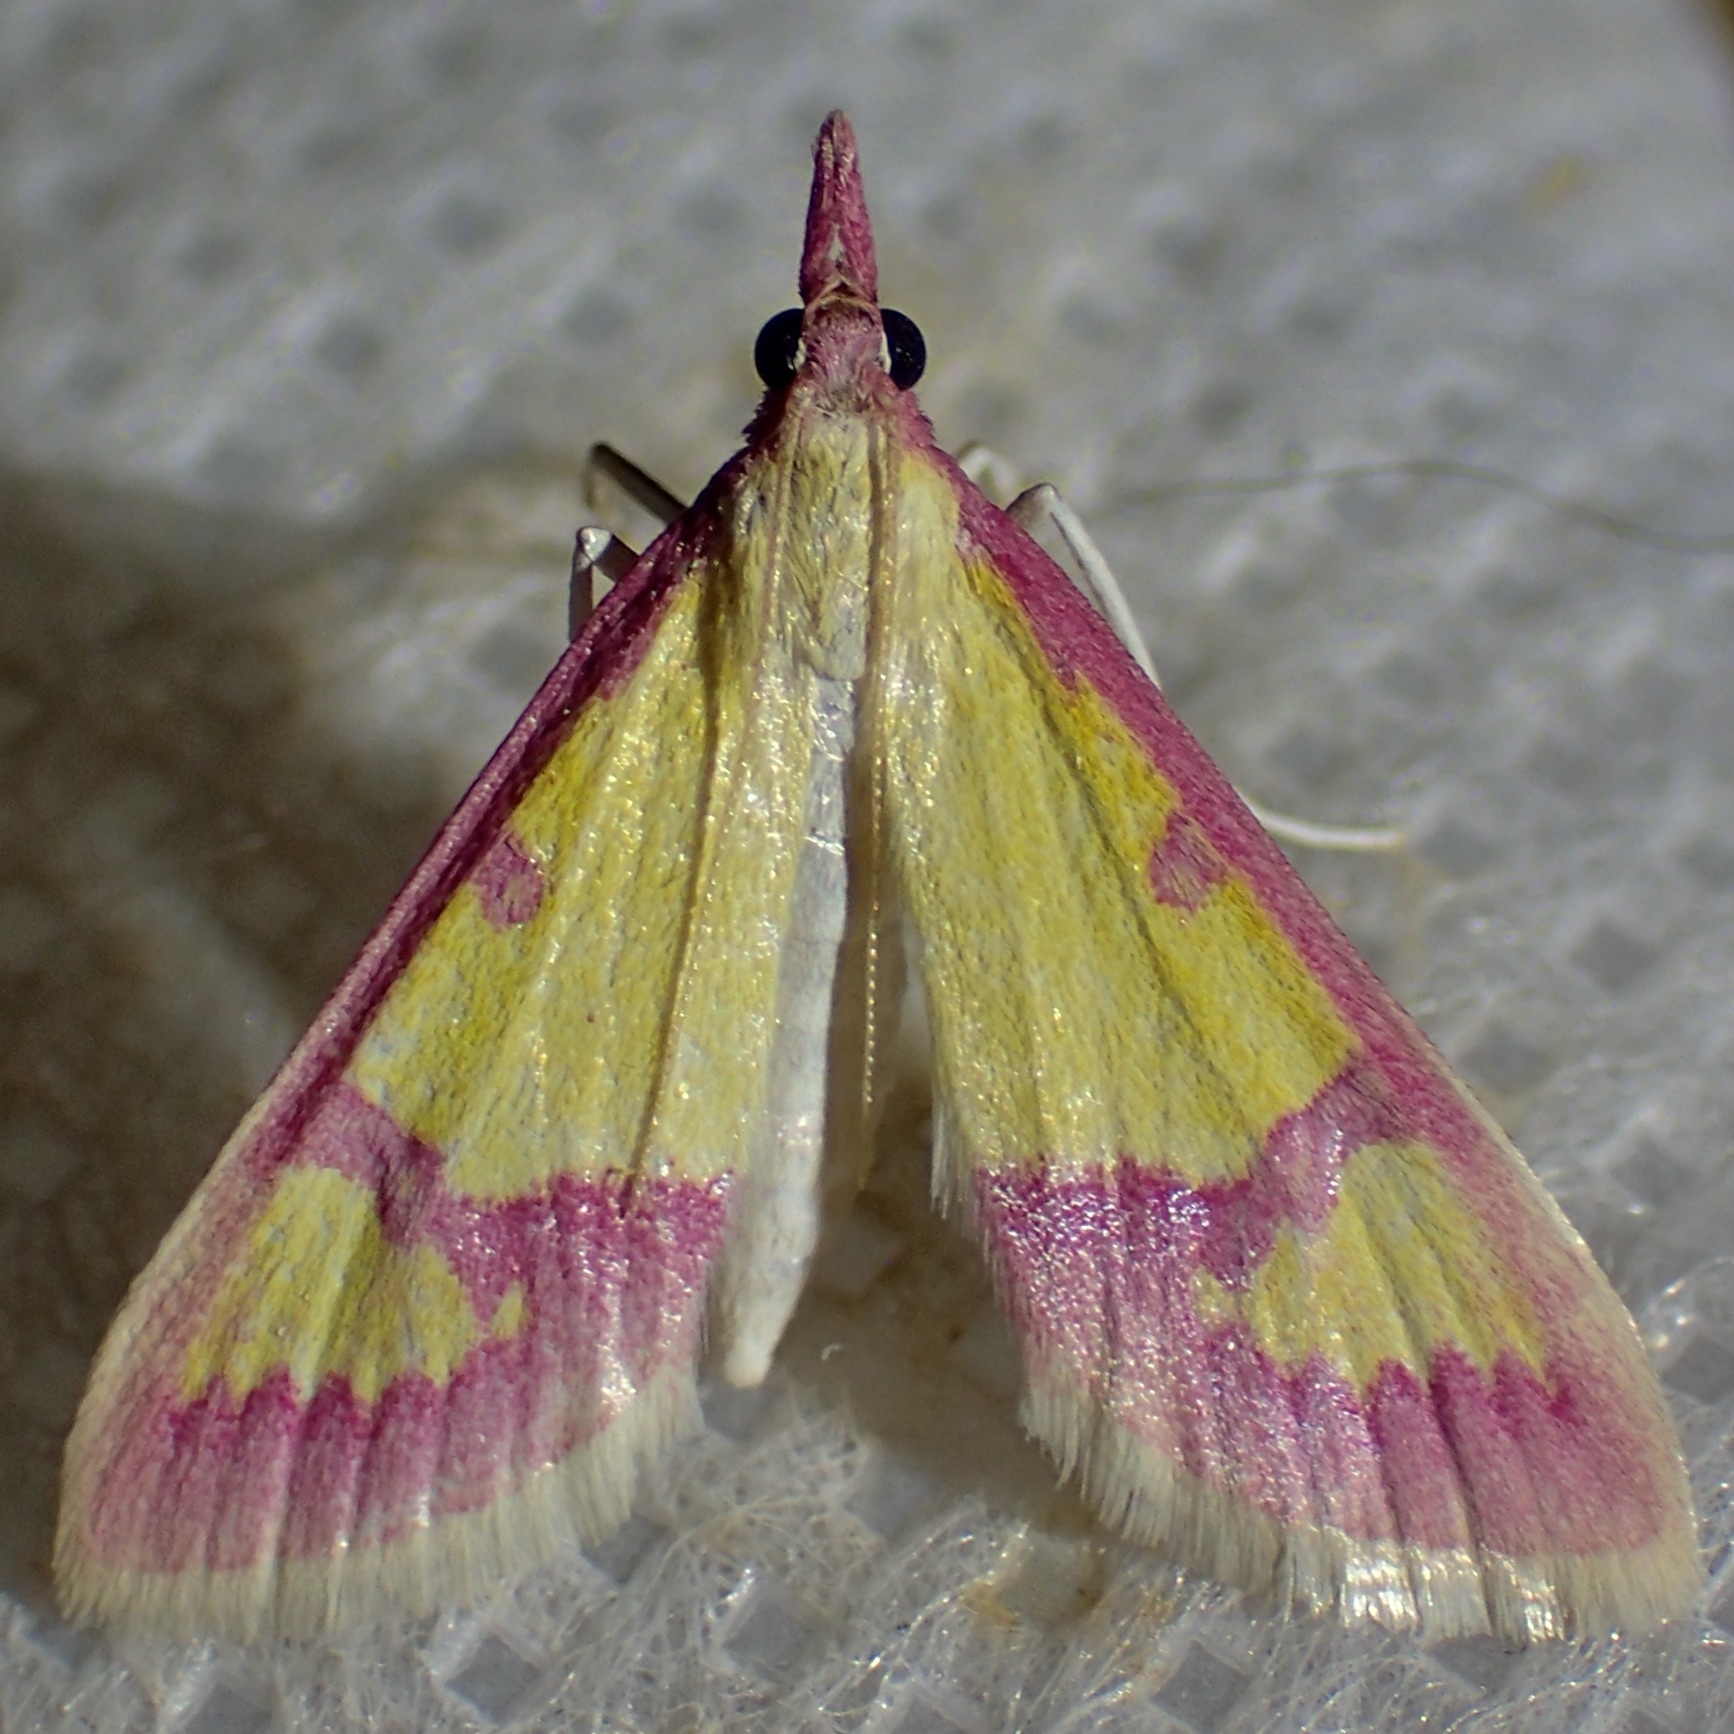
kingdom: Animalia
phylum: Arthropoda
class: Insecta
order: Lepidoptera
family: Crambidae
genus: Choristostigma
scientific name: Choristostigma roseopennalis
